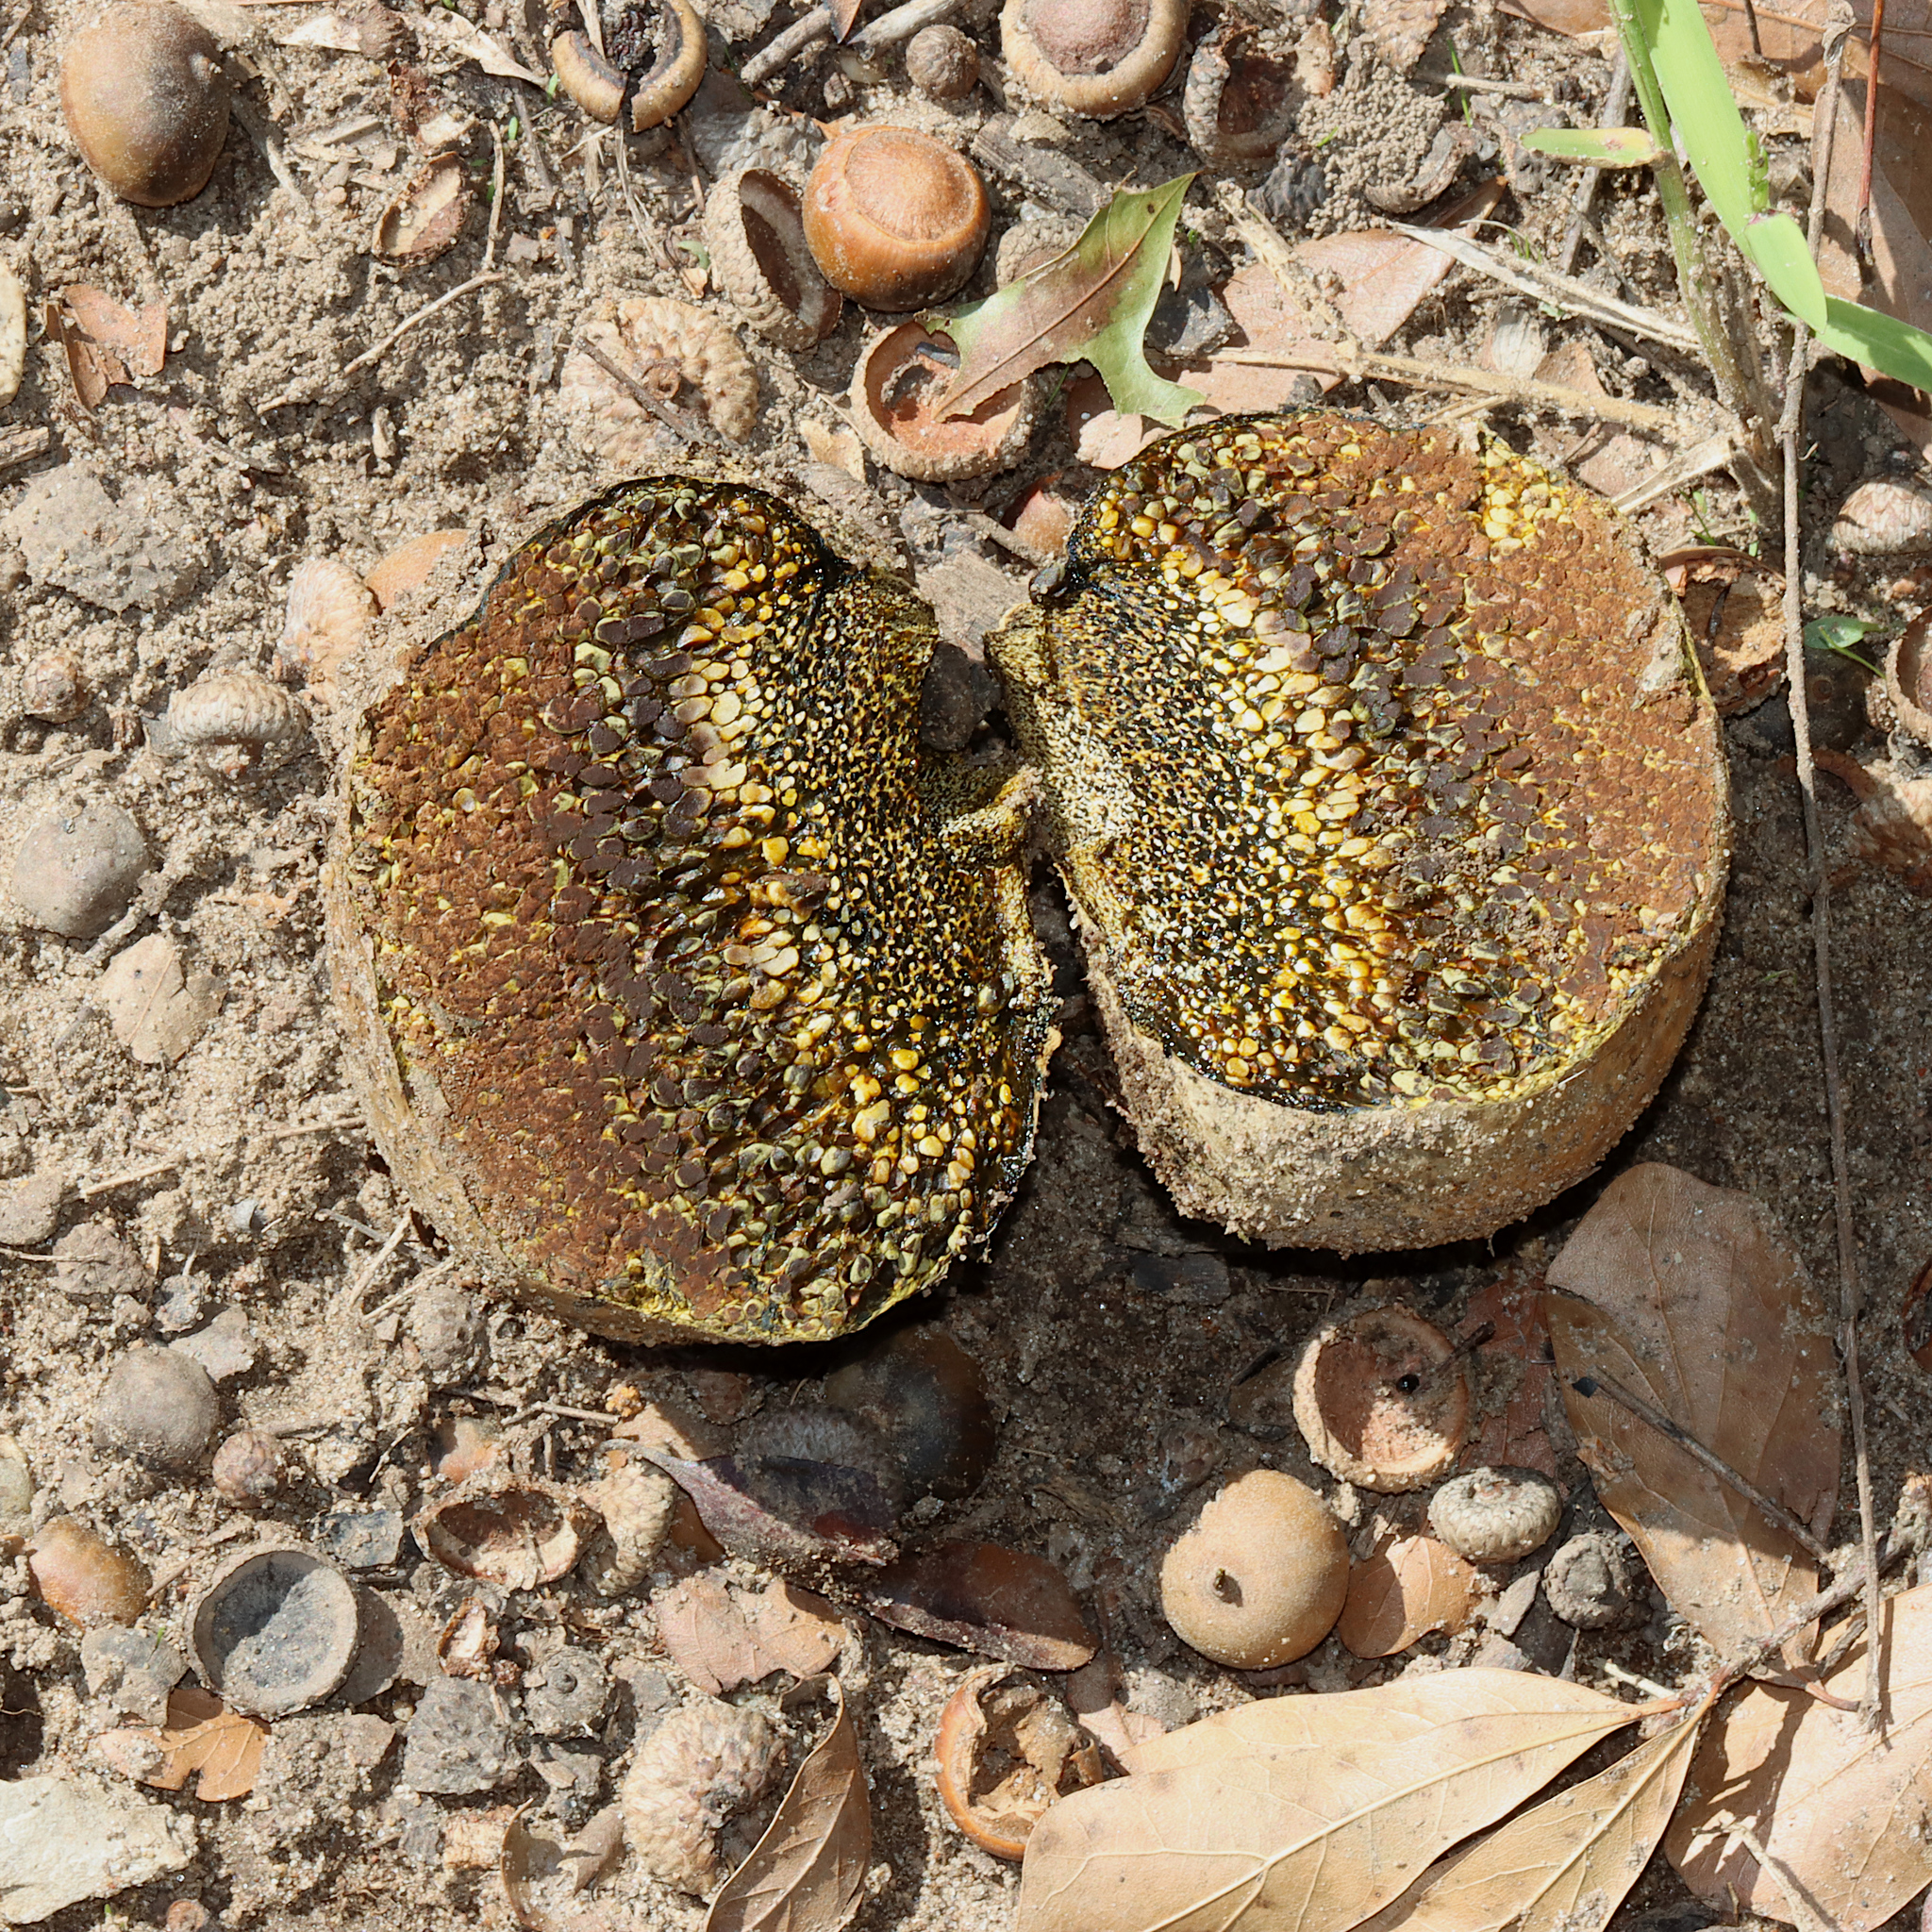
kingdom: Fungi
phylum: Basidiomycota
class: Agaricomycetes
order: Boletales
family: Sclerodermataceae
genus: Pisolithus
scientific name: Pisolithus arenarius
